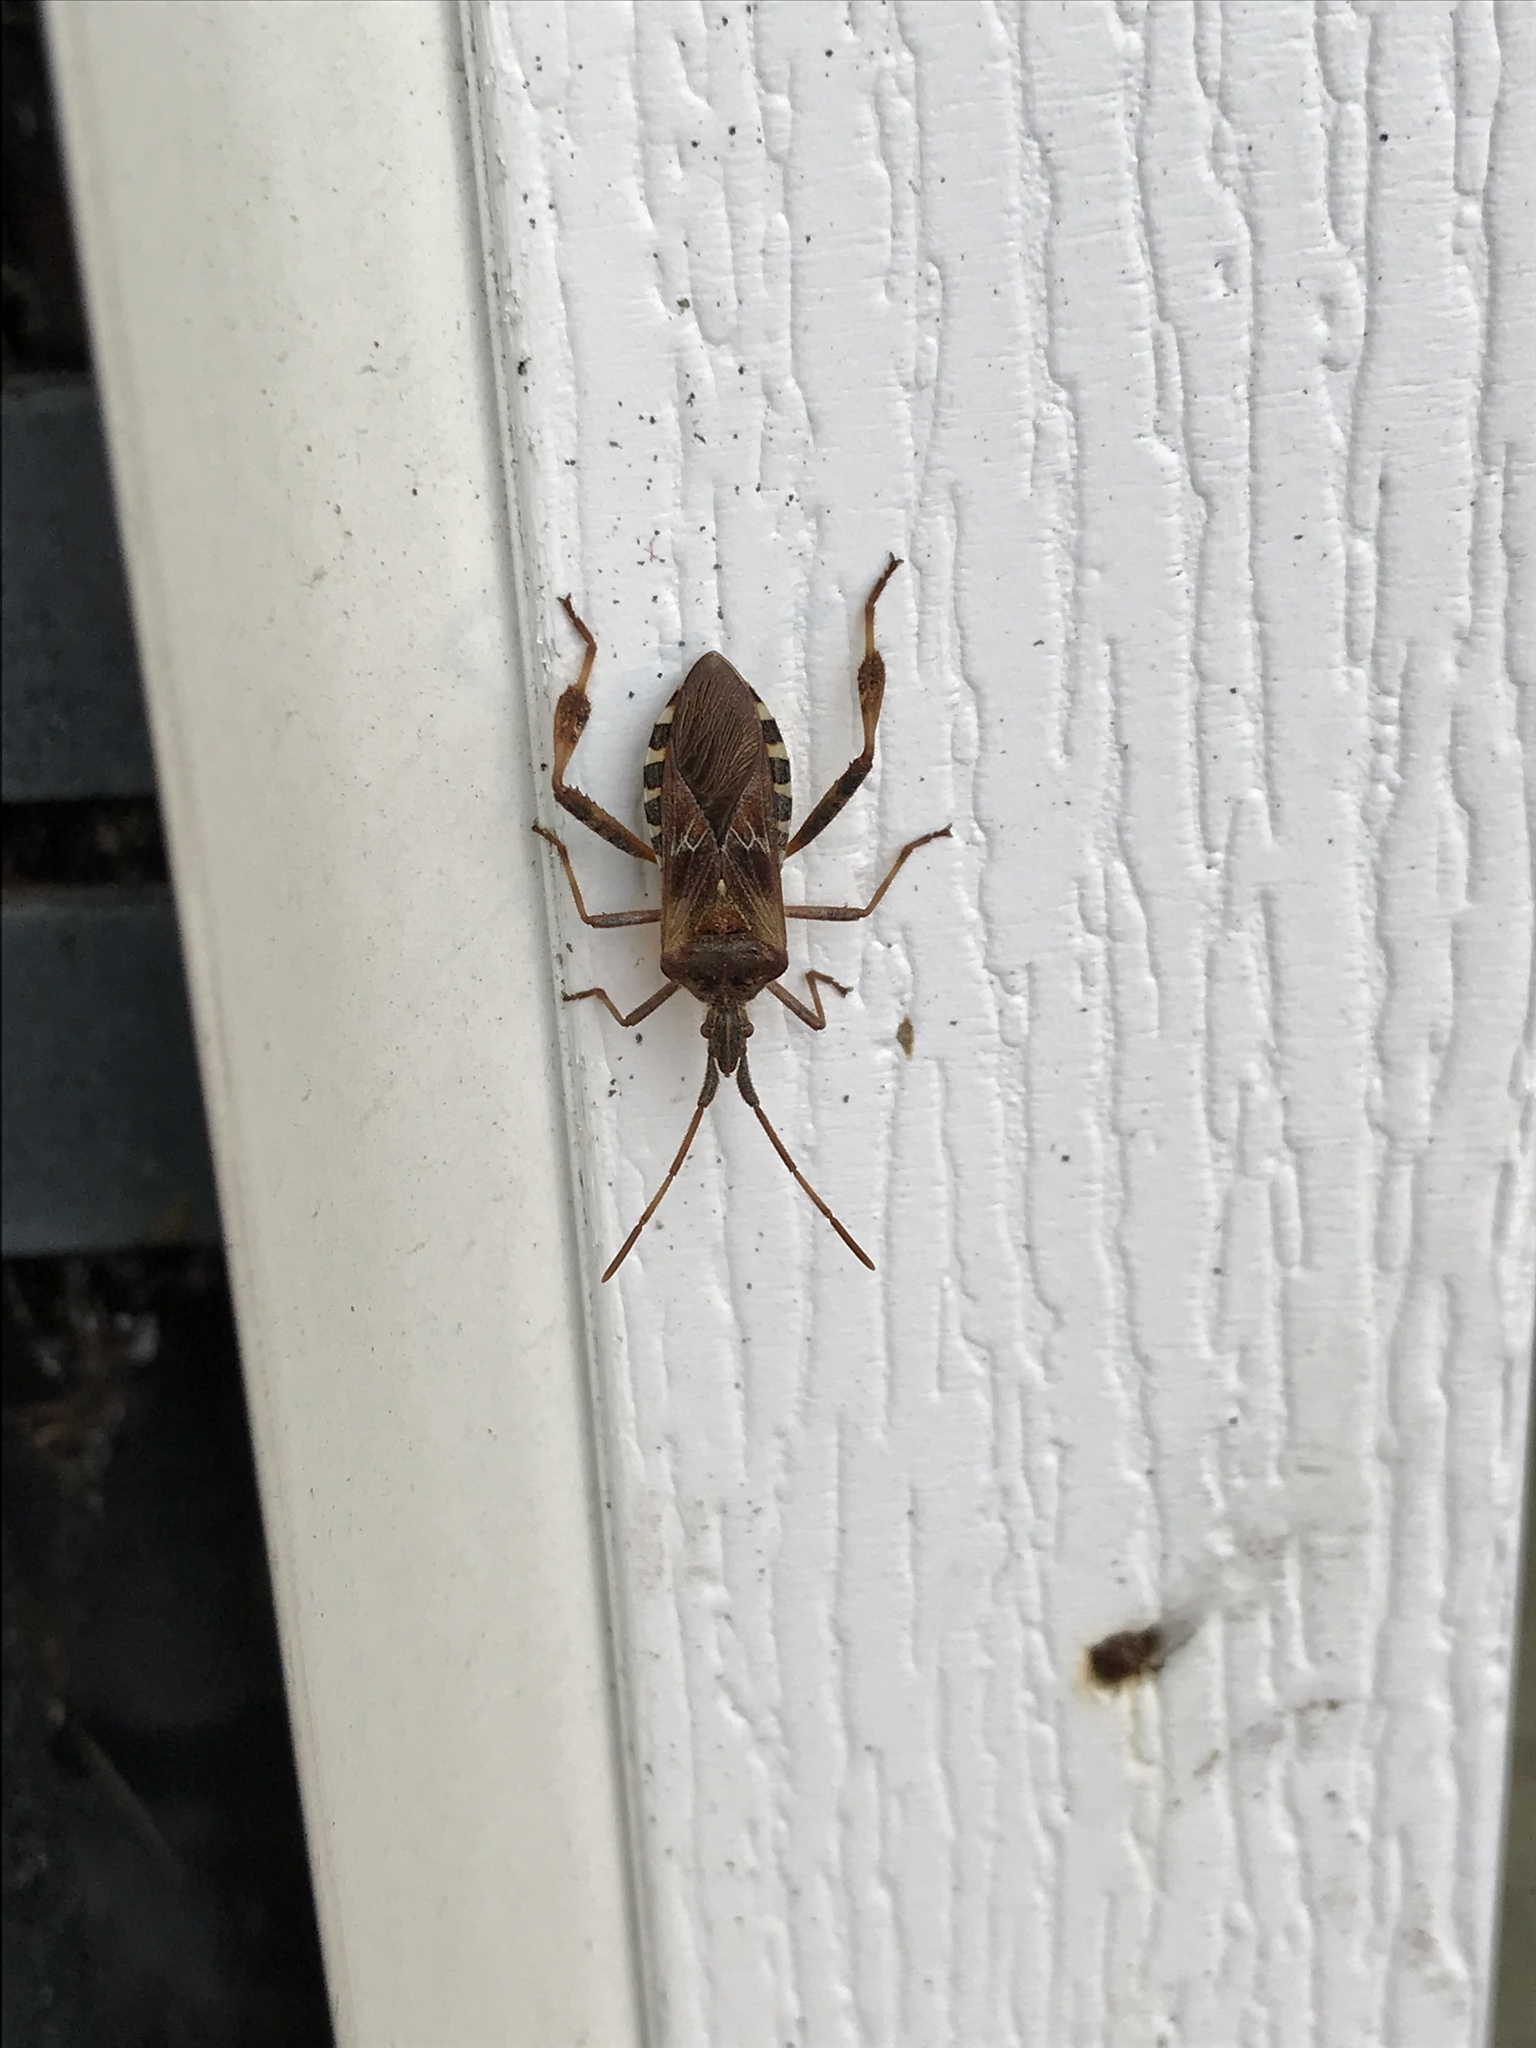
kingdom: Animalia
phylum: Arthropoda
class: Insecta
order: Hemiptera
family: Coreidae
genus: Leptoglossus
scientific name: Leptoglossus occidentalis
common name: Western conifer-seed bug
